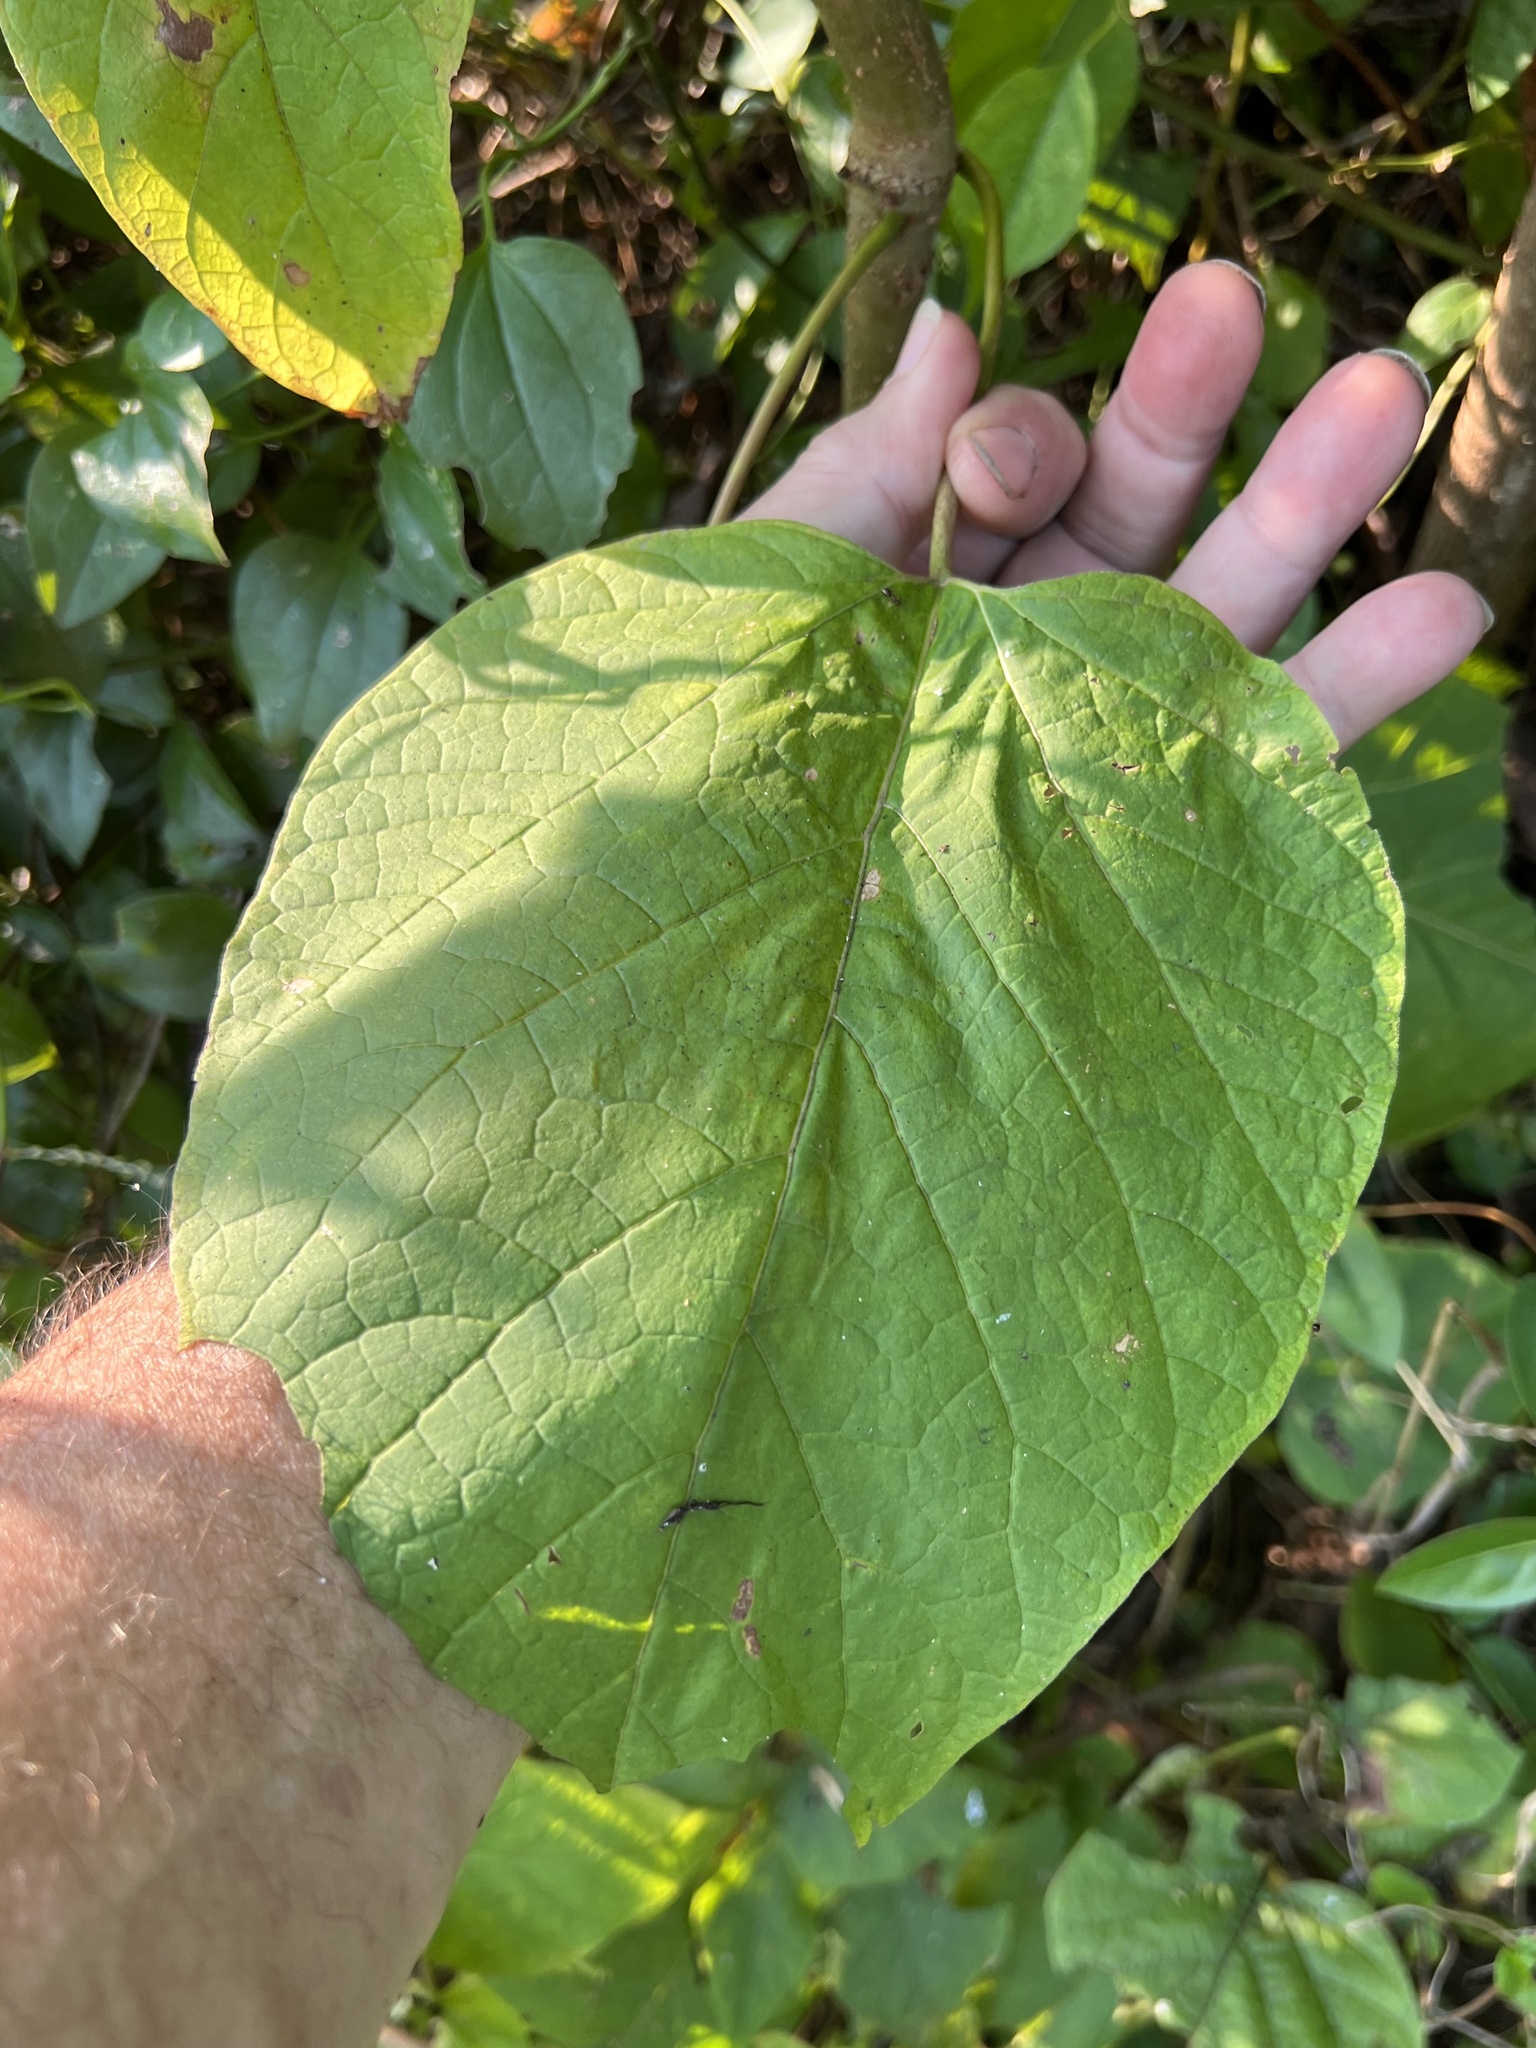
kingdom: Animalia
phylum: Arthropoda
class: Insecta
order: Lepidoptera
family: Sphingidae
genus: Ceratomia
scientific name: Ceratomia catalpae
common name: Catalpa hornworm
